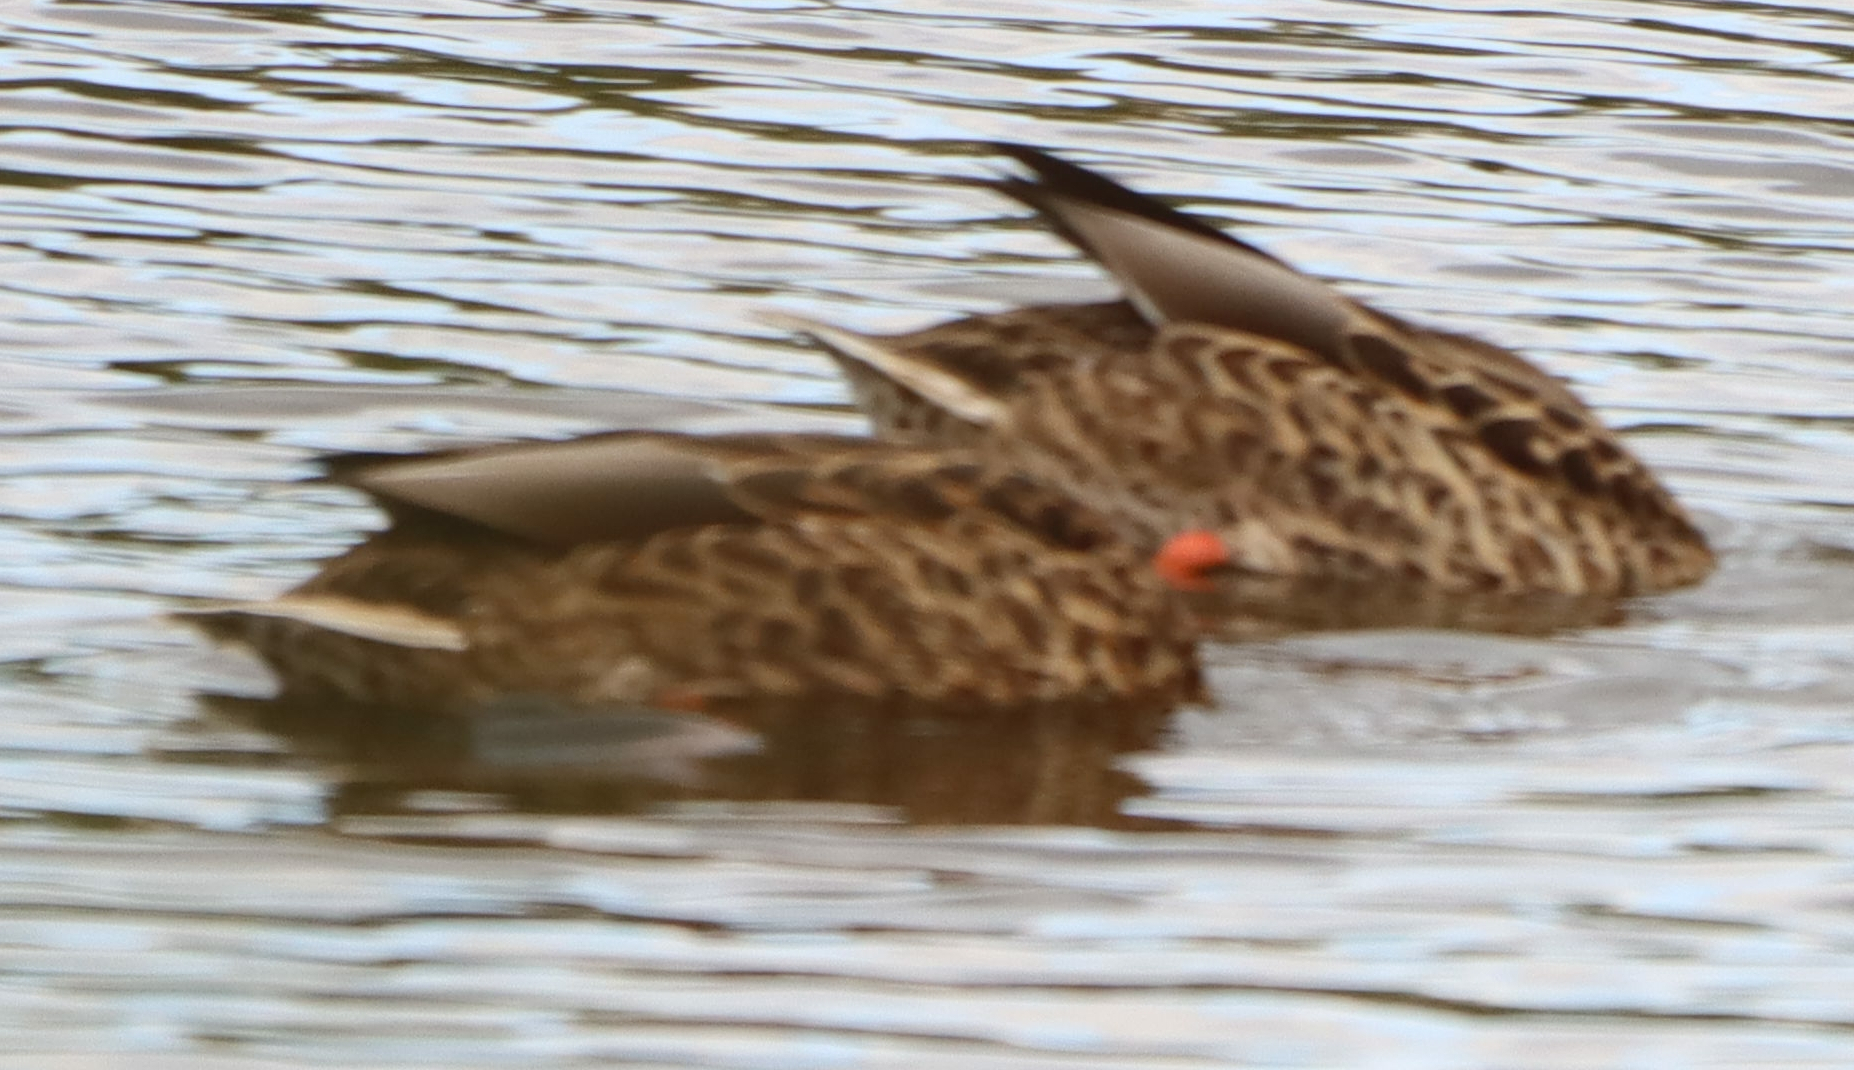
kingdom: Animalia
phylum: Chordata
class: Aves
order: Anseriformes
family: Anatidae
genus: Anas
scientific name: Anas platyrhynchos
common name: Mallard
